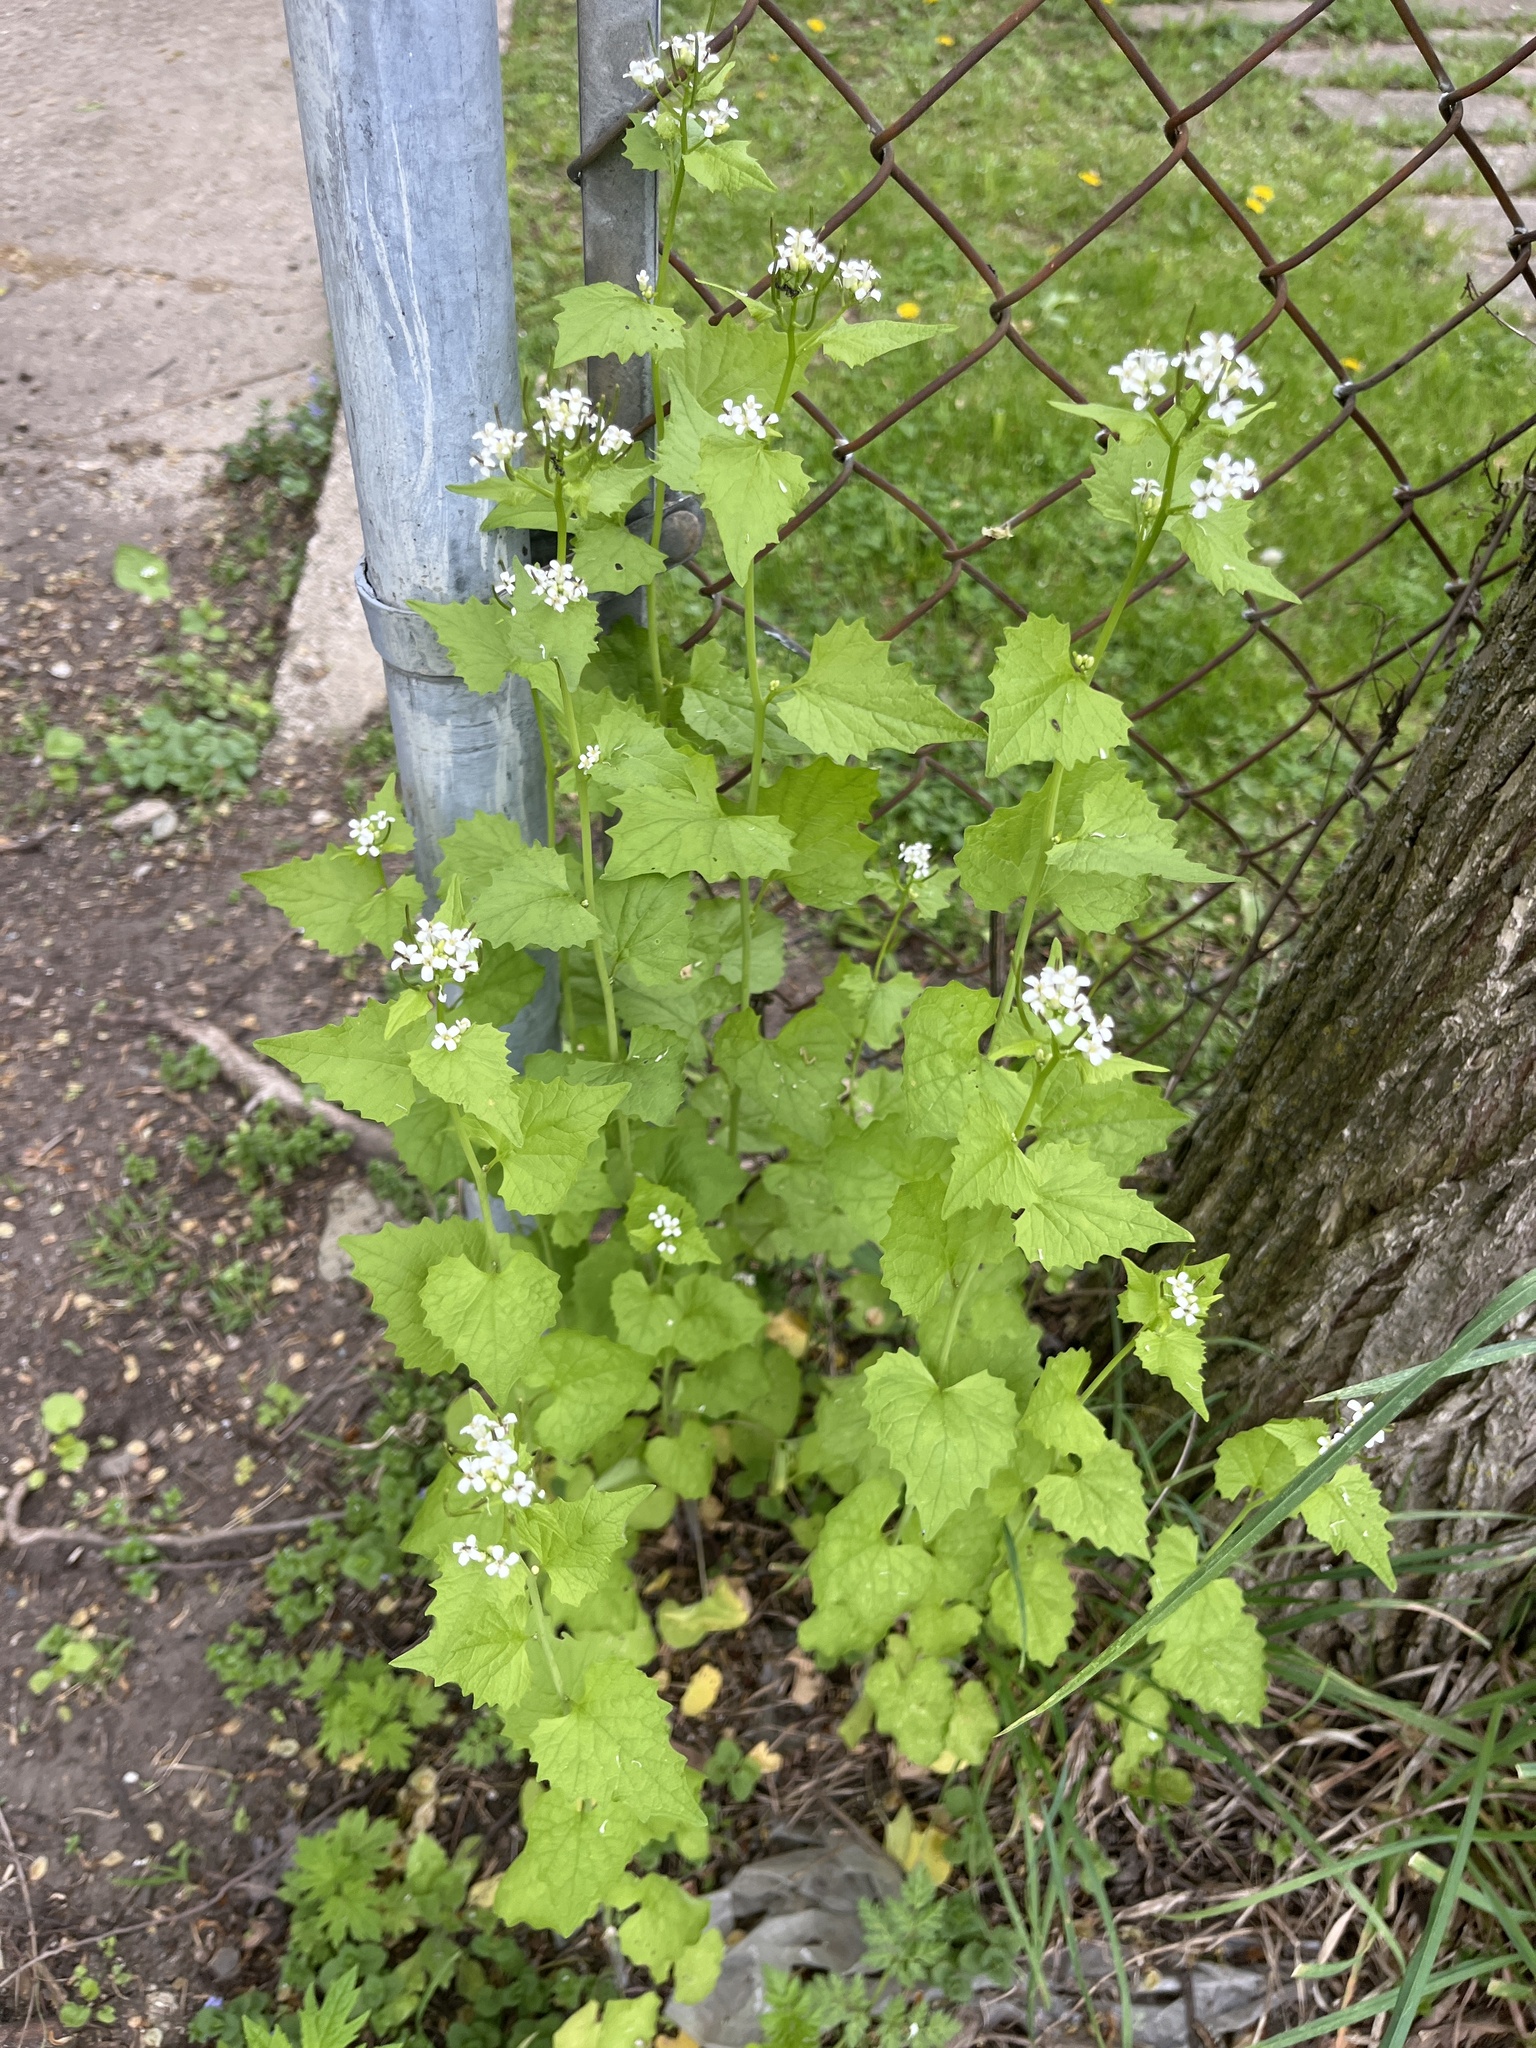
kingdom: Plantae
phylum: Tracheophyta
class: Magnoliopsida
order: Brassicales
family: Brassicaceae
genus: Alliaria
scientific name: Alliaria petiolata
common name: Garlic mustard
